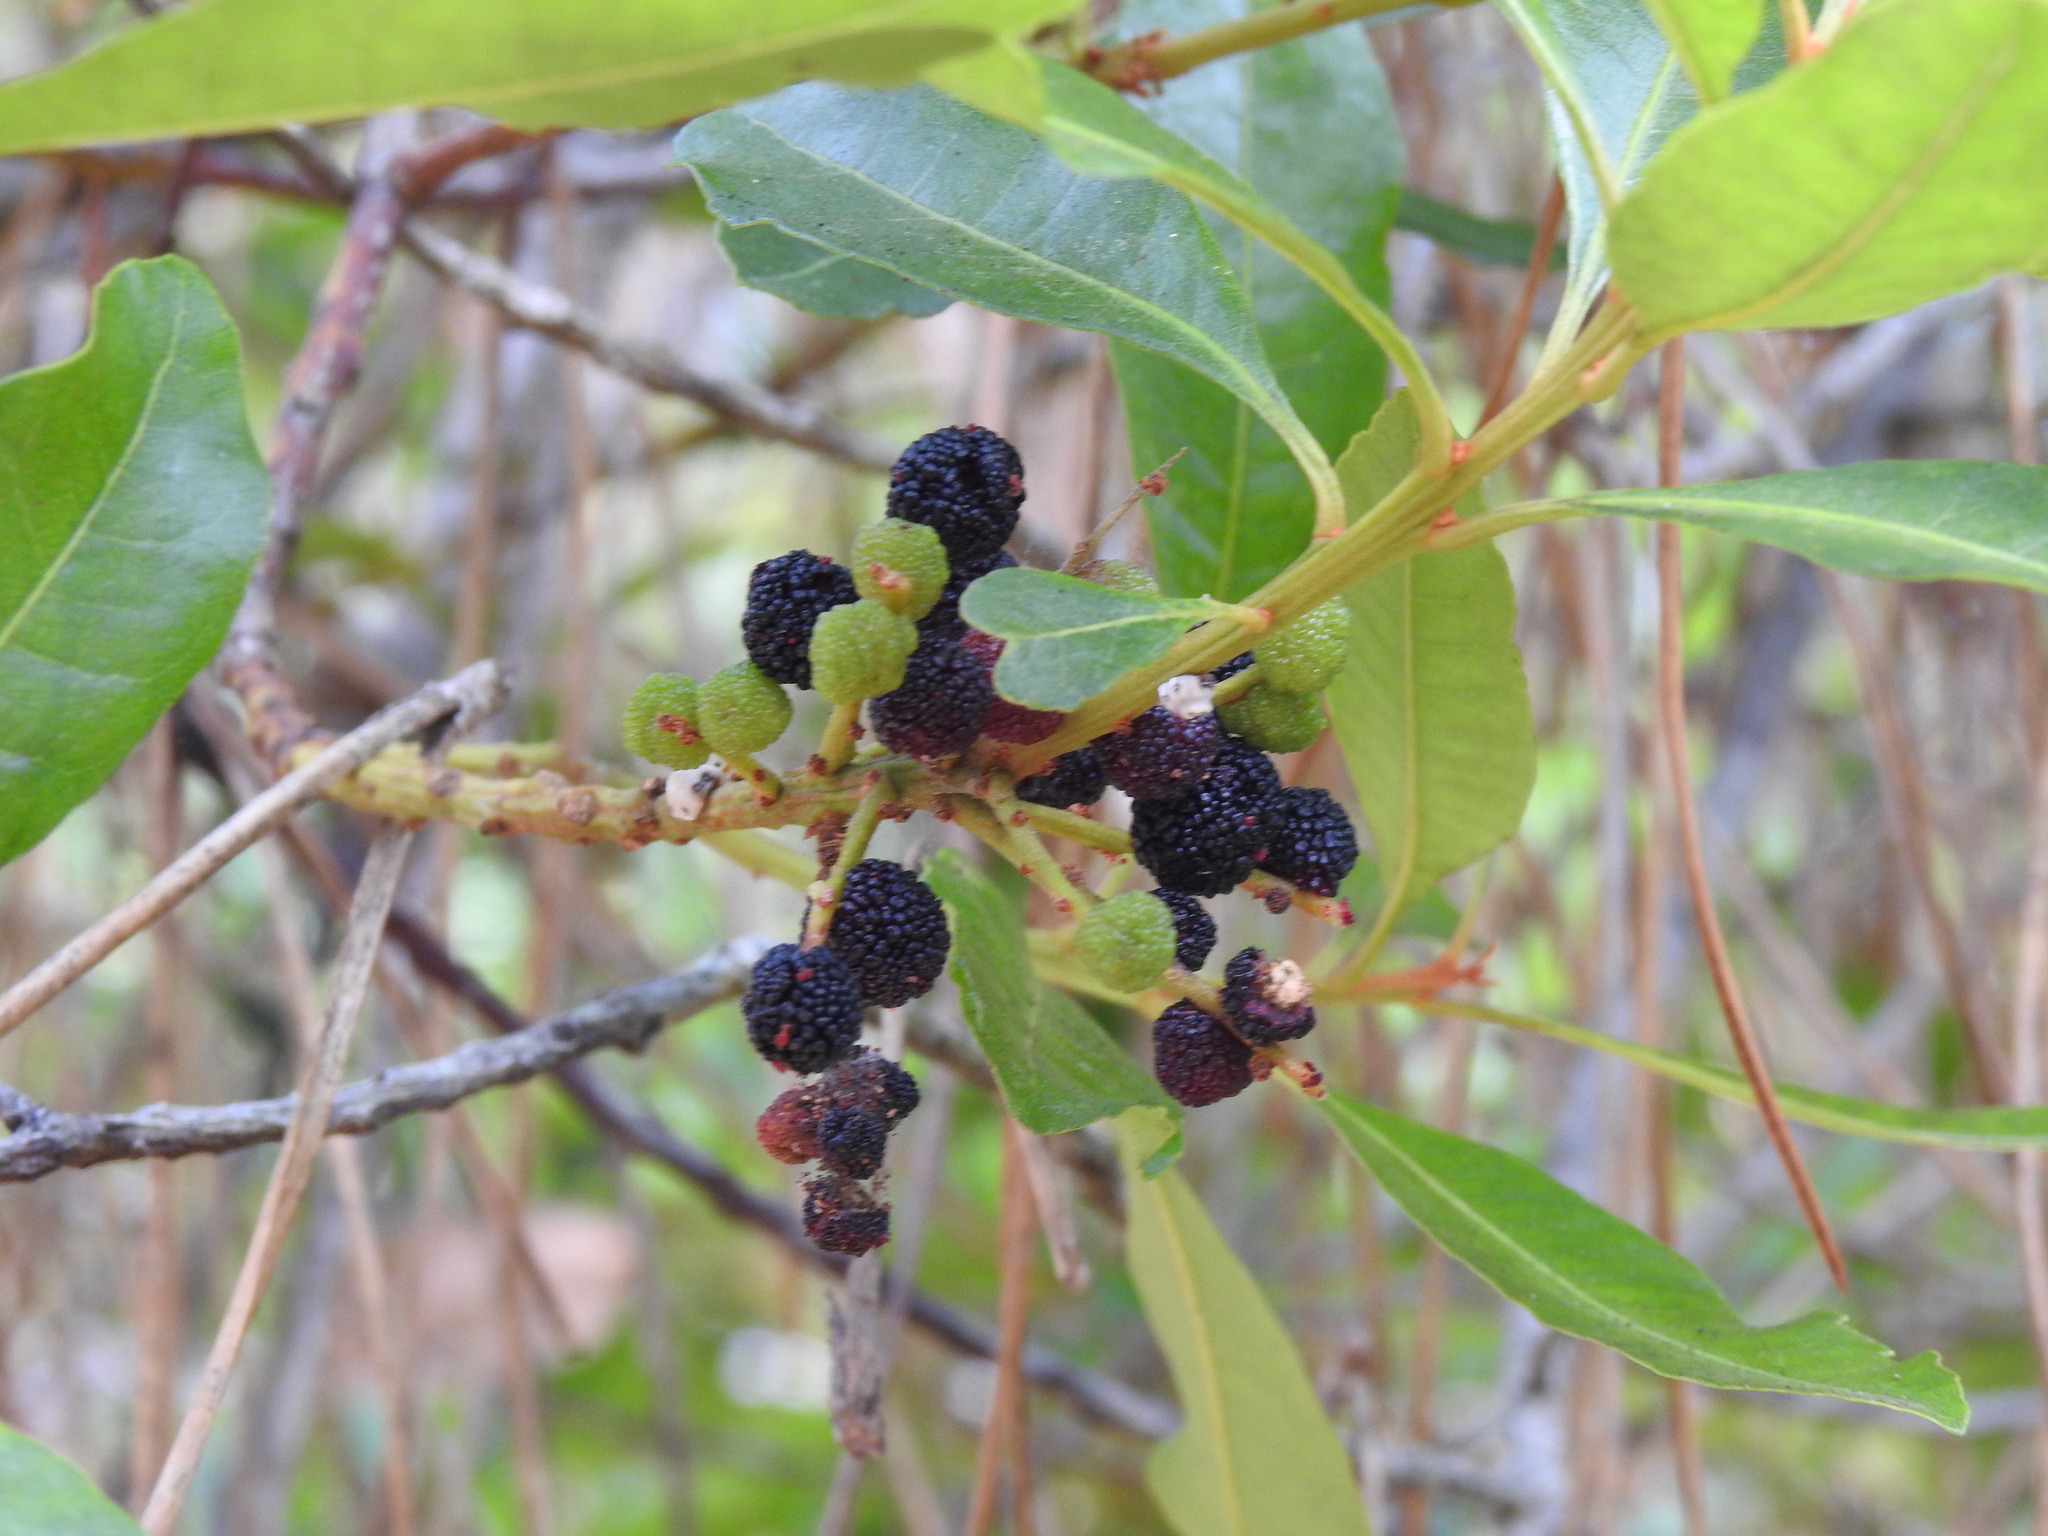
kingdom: Plantae
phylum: Tracheophyta
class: Magnoliopsida
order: Fagales
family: Myricaceae
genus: Morella
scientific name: Morella faya
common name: Firetree
